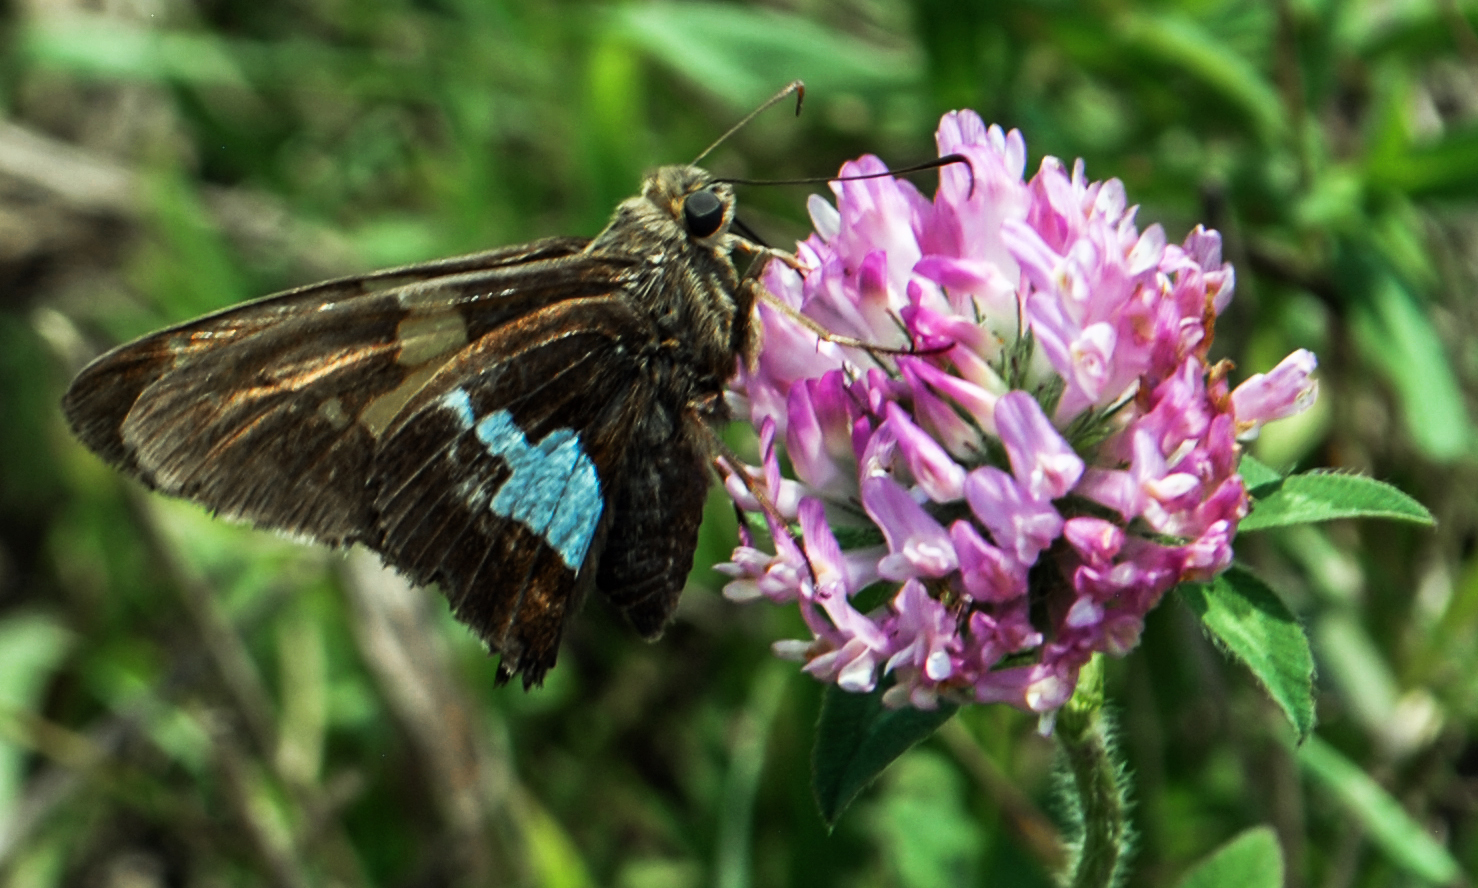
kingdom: Animalia
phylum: Arthropoda
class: Insecta
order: Lepidoptera
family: Hesperiidae
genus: Epargyreus
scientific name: Epargyreus clarus
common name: Silver-spotted skipper
